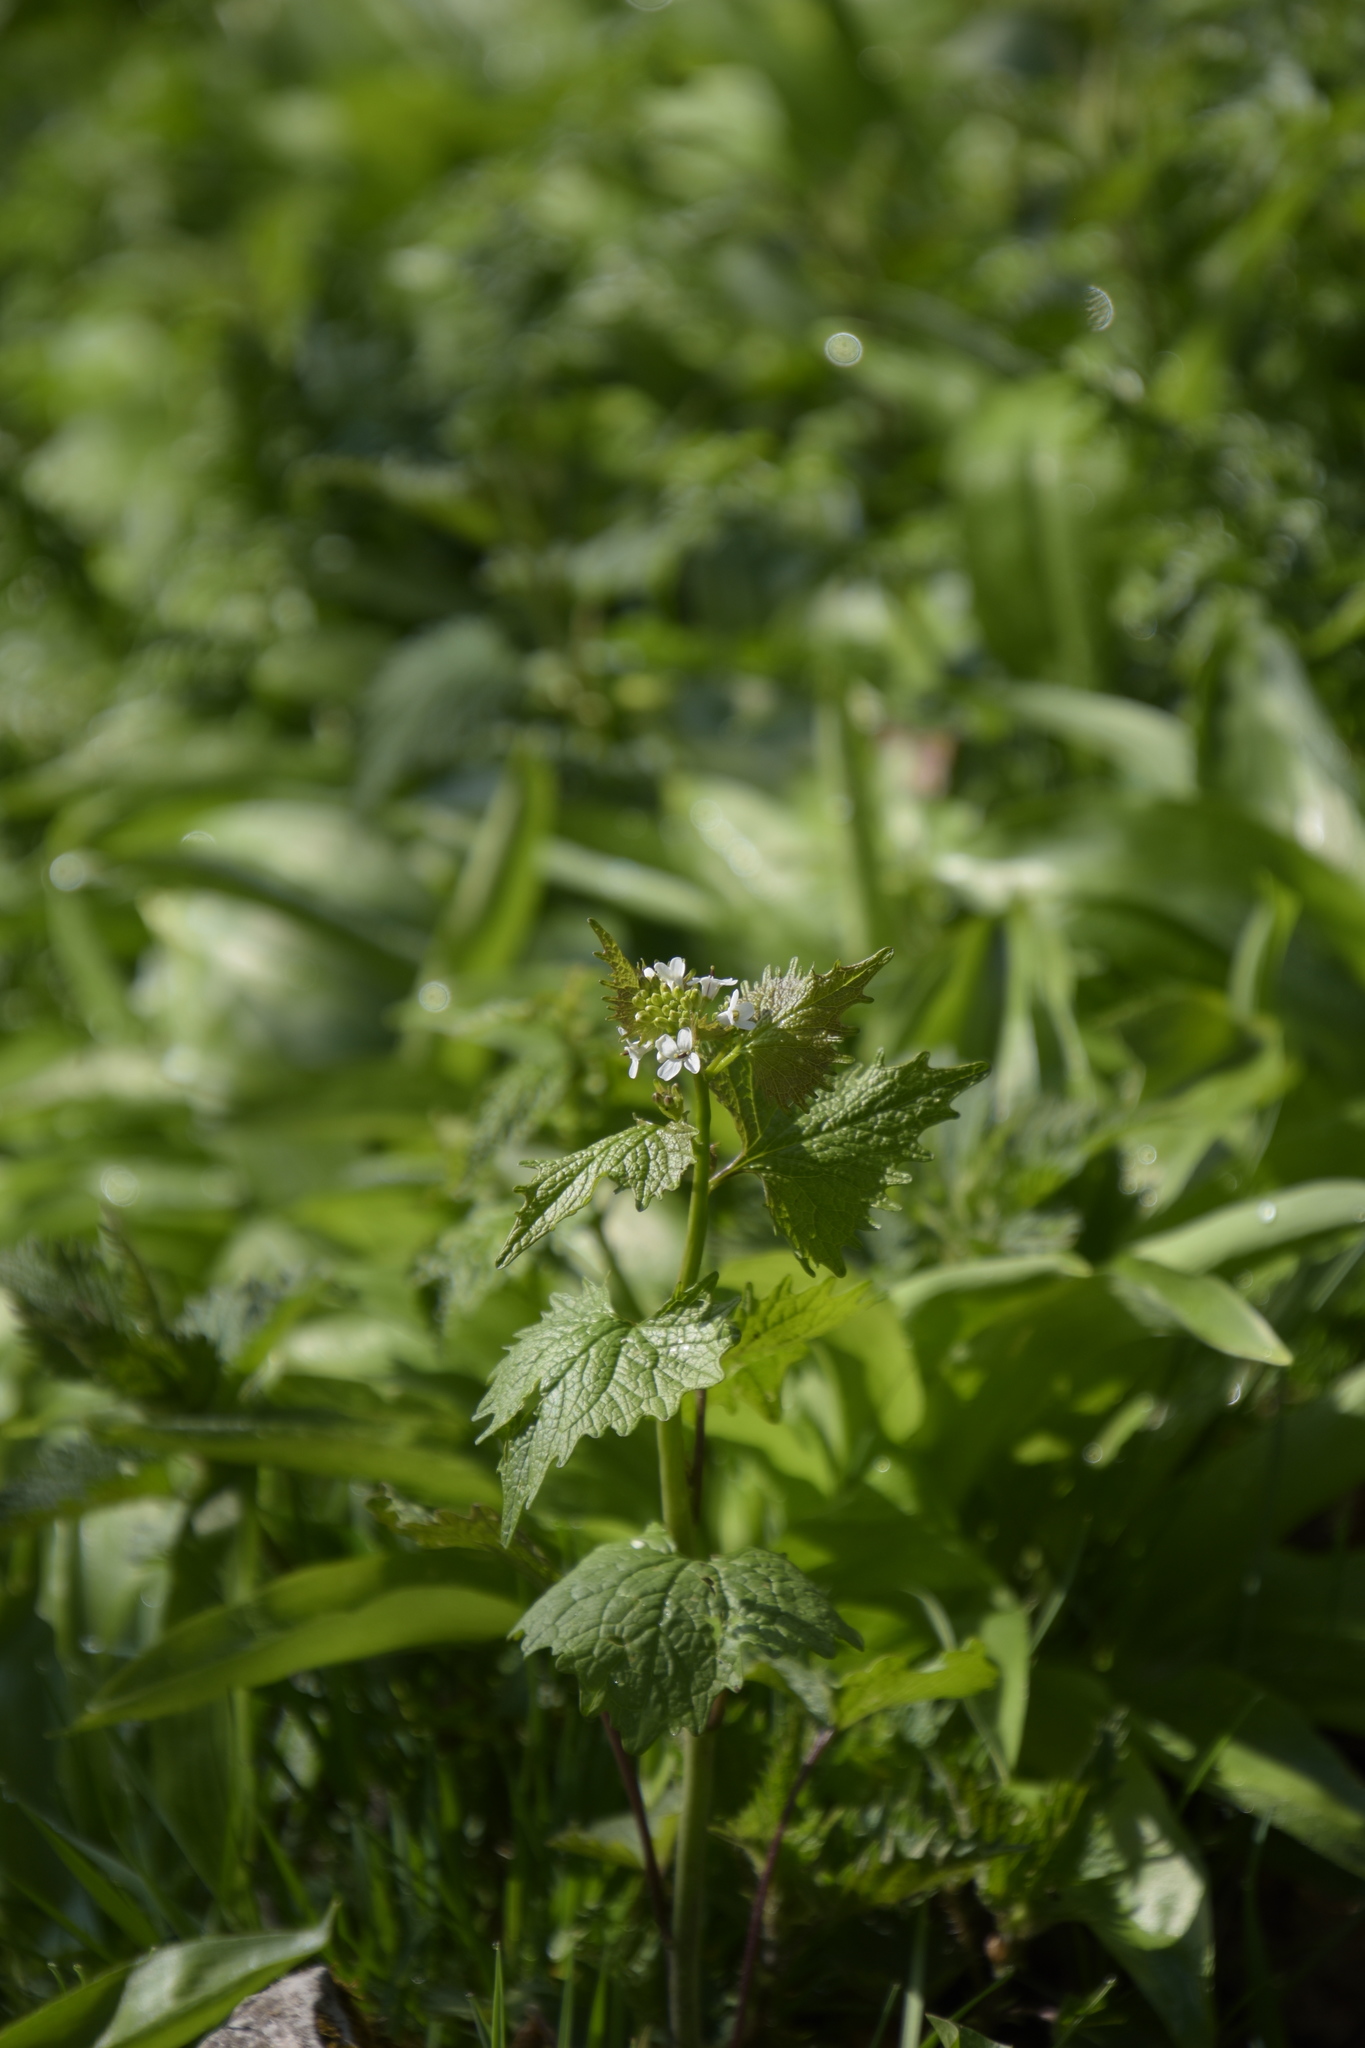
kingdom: Plantae
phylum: Tracheophyta
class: Magnoliopsida
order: Brassicales
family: Brassicaceae
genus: Alliaria
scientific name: Alliaria petiolata
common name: Garlic mustard
